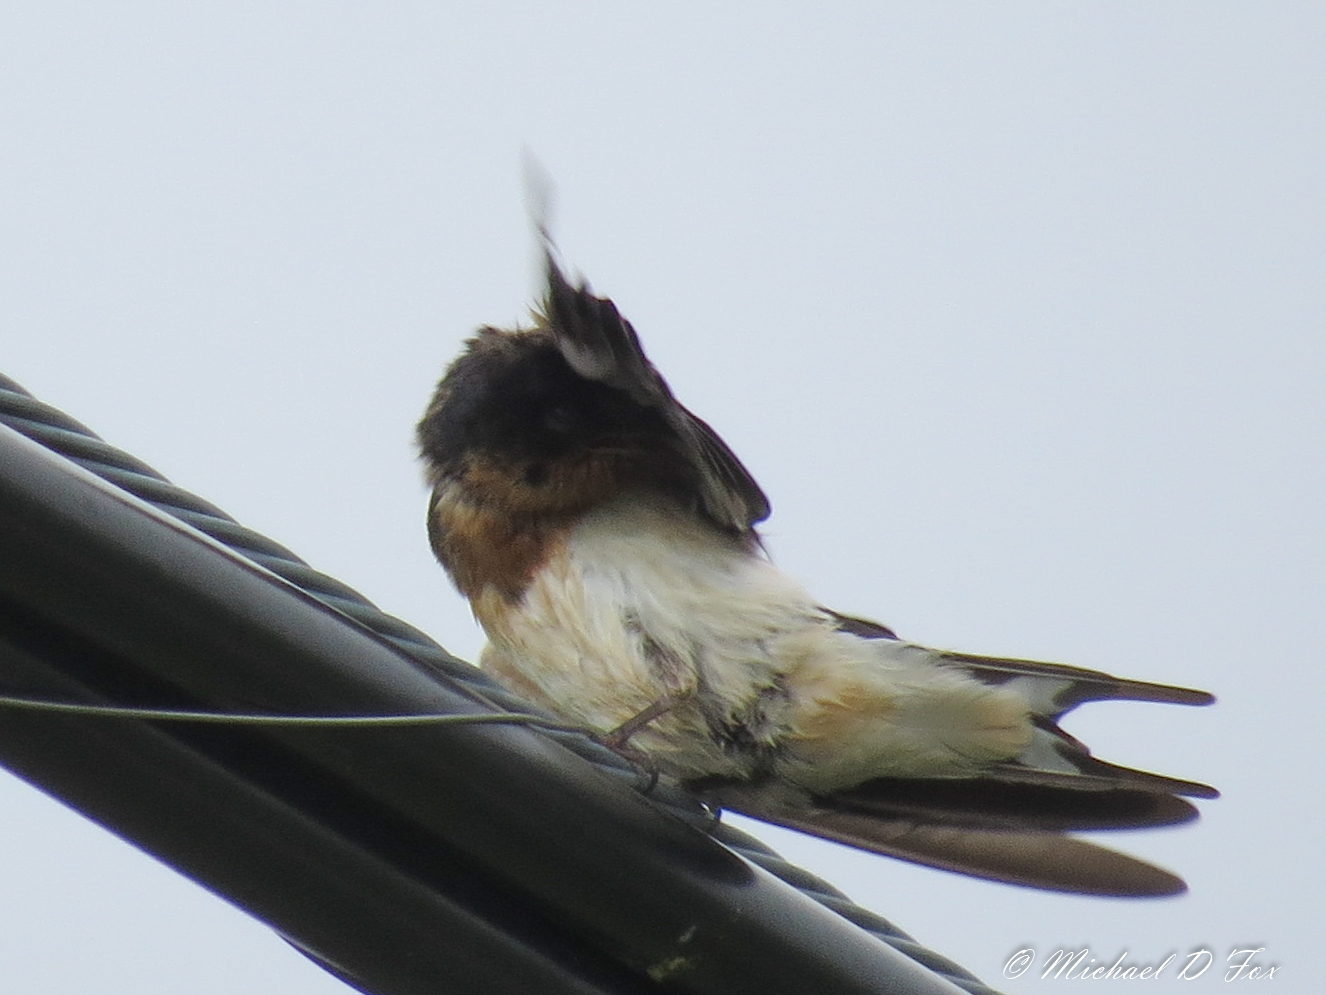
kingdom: Animalia
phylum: Chordata
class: Aves
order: Passeriformes
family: Hirundinidae
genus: Hirundo
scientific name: Hirundo rustica
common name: Barn swallow
